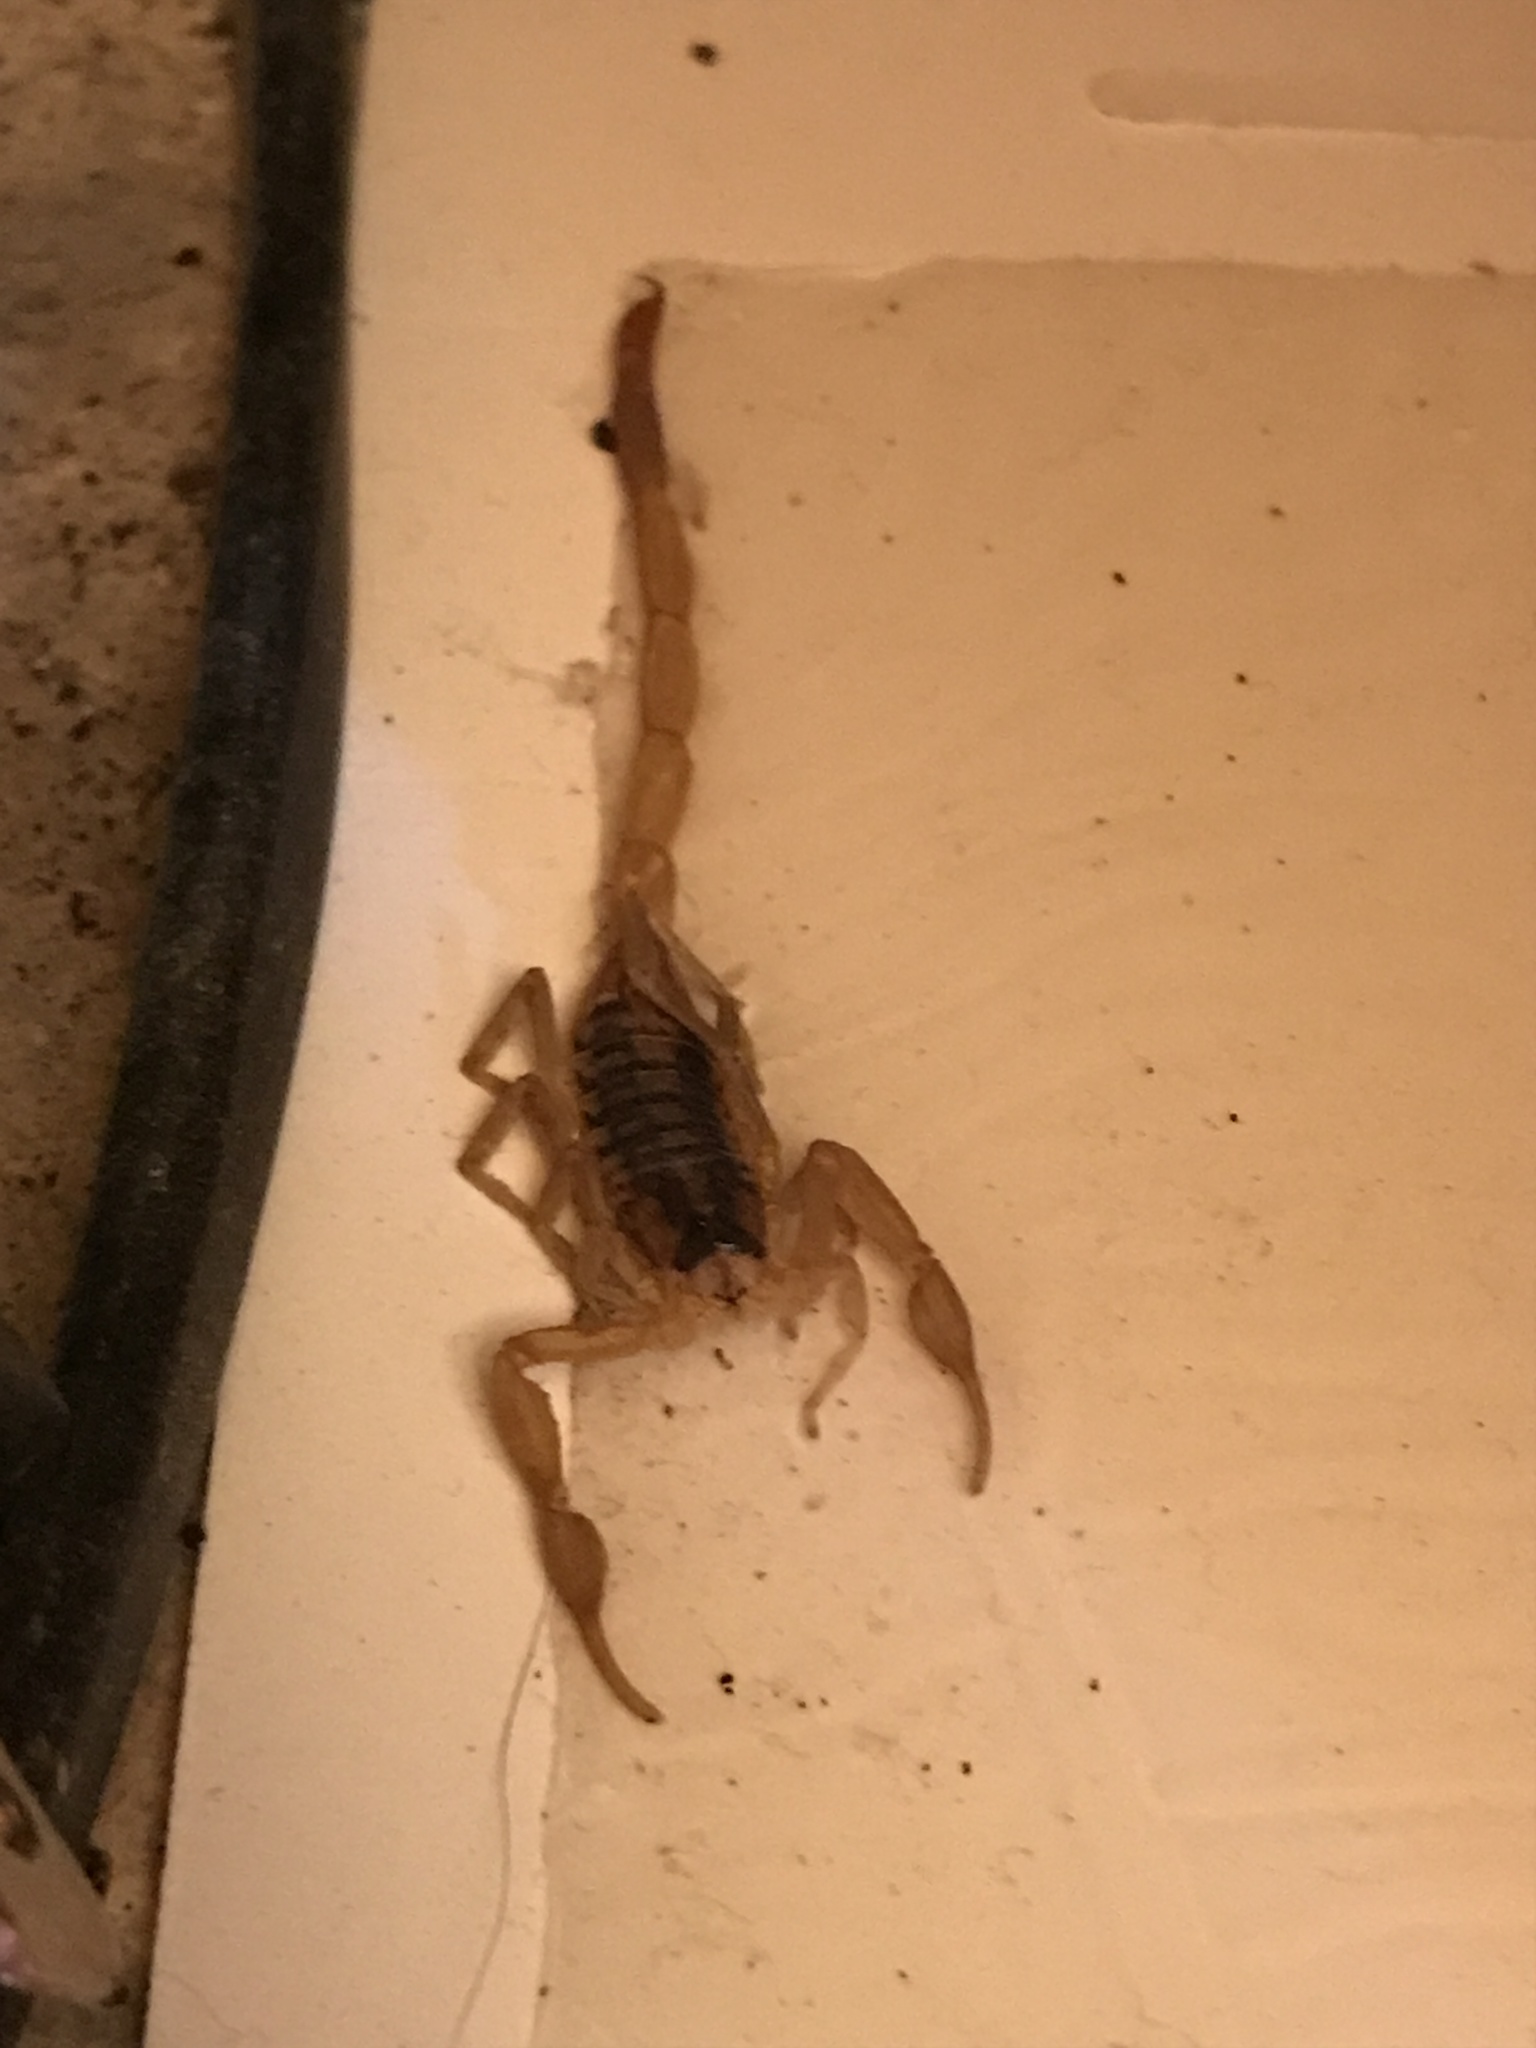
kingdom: Animalia
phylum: Arthropoda
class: Arachnida
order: Scorpiones
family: Buthidae
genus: Centruroides
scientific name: Centruroides vittatus
